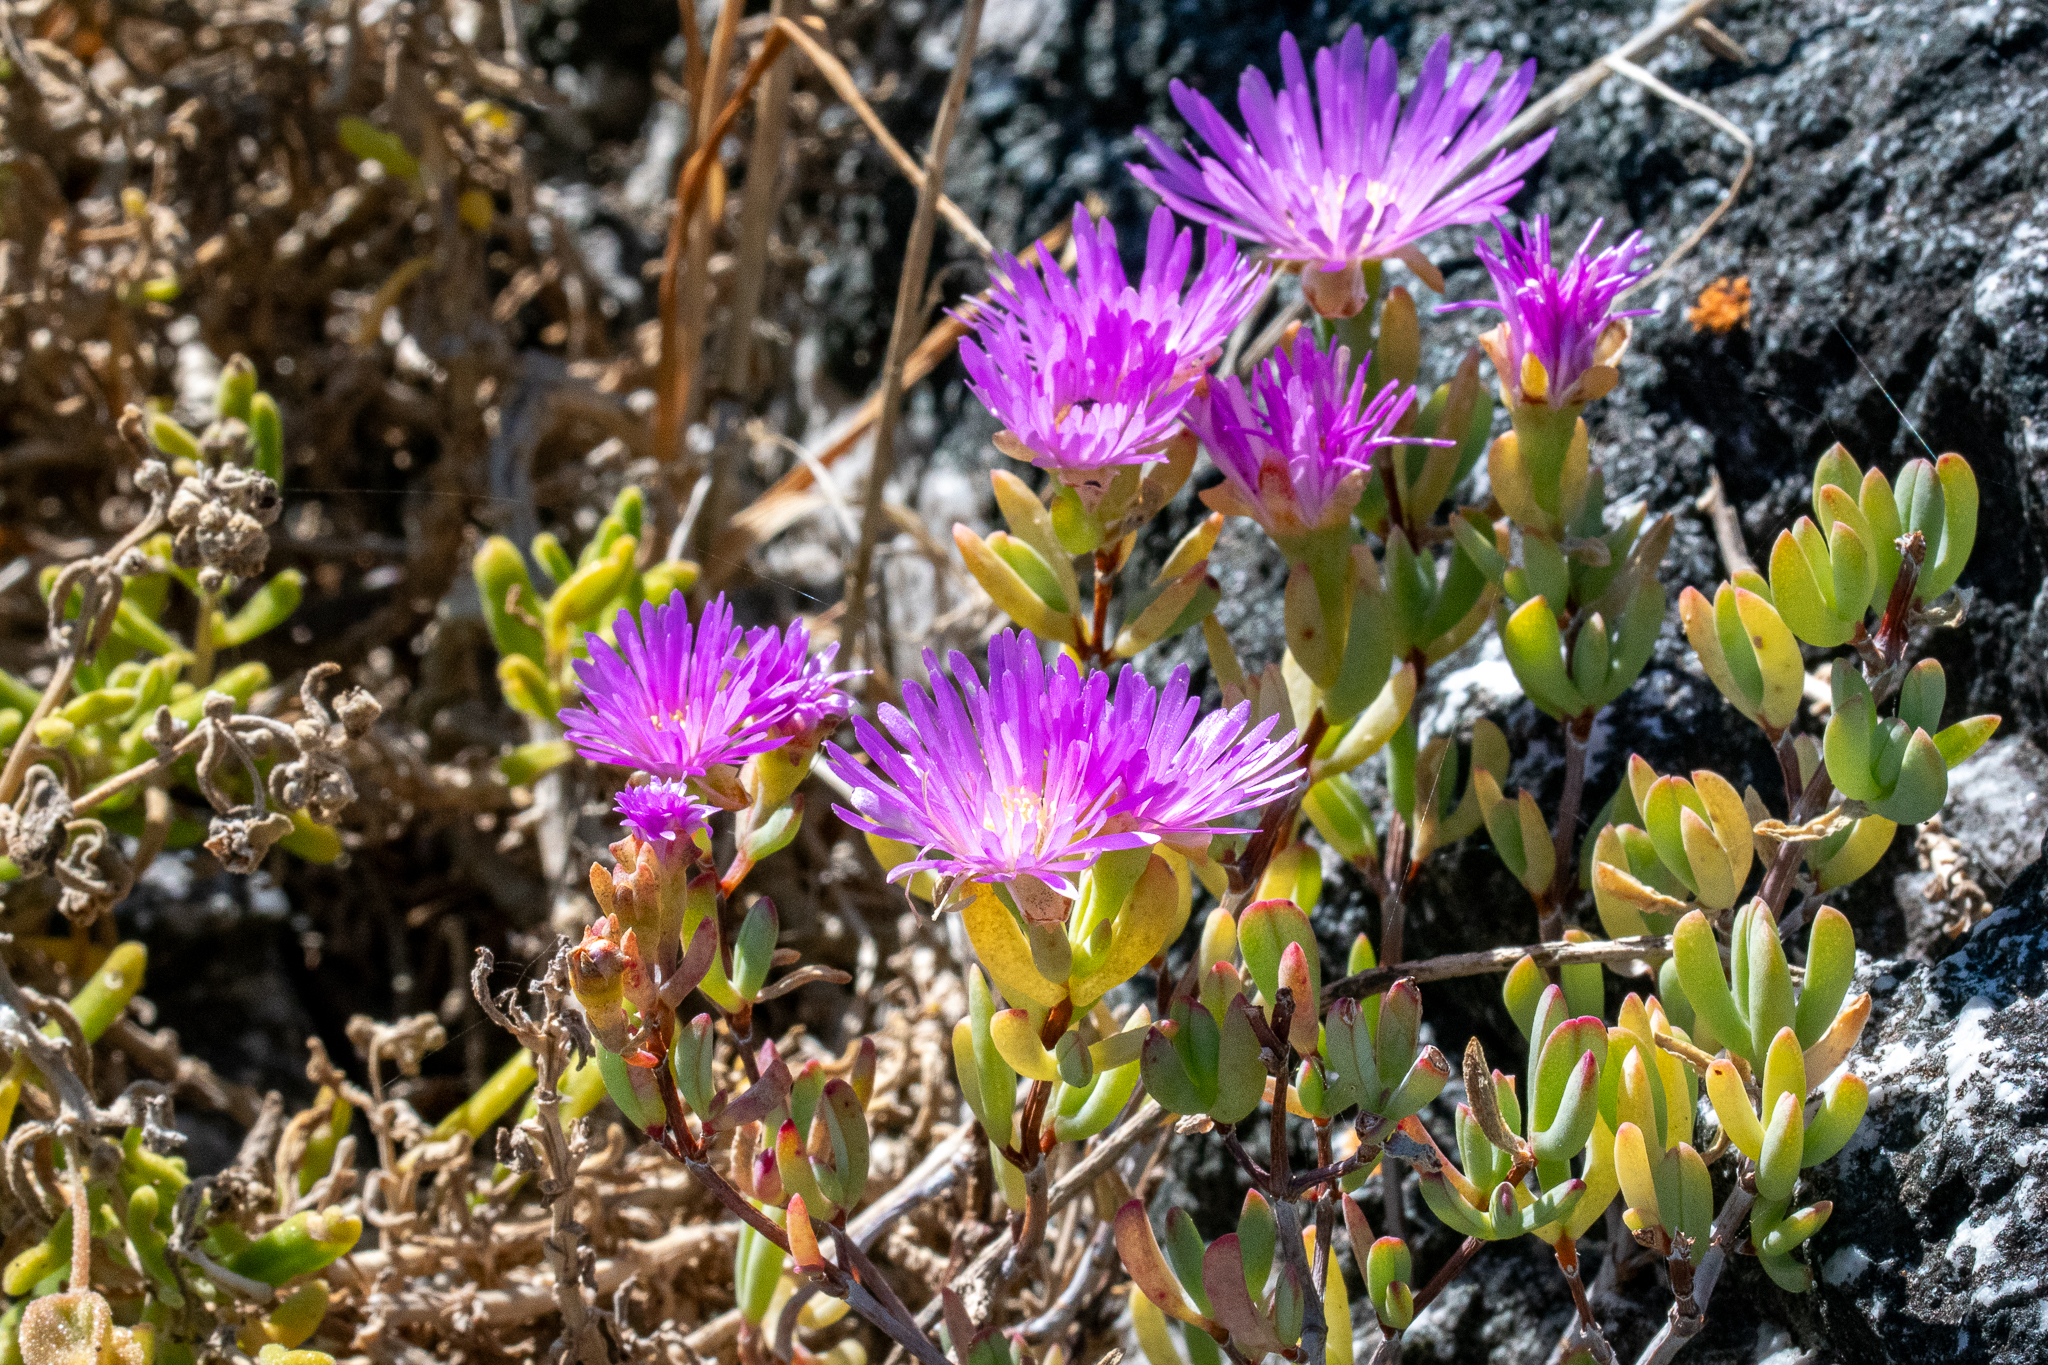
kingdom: Plantae
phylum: Tracheophyta
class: Magnoliopsida
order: Caryophyllales
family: Aizoaceae
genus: Lampranthus
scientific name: Lampranthus glomeratus
